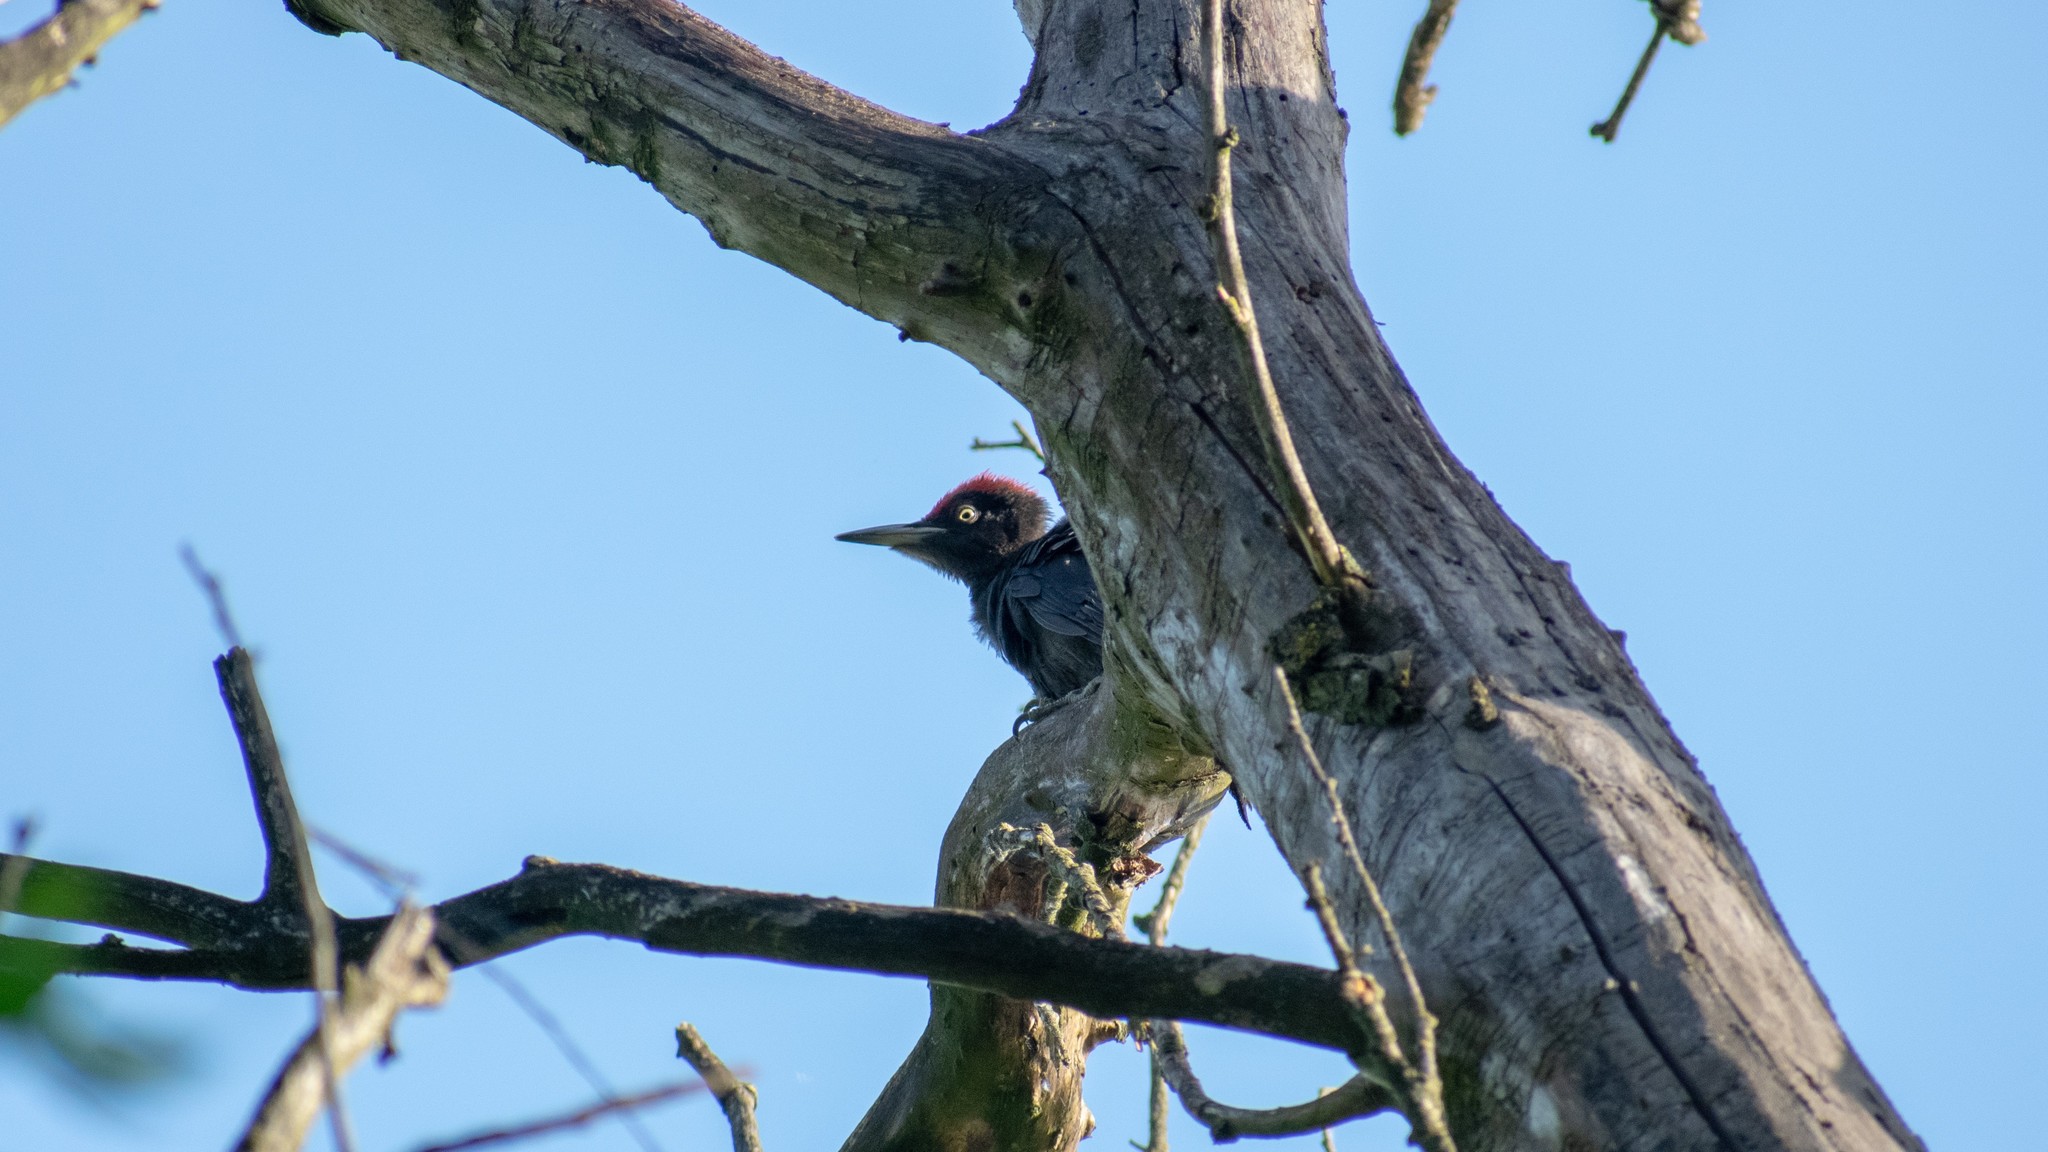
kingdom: Animalia
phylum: Chordata
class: Aves
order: Piciformes
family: Picidae
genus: Dryocopus
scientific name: Dryocopus martius
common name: Black woodpecker
